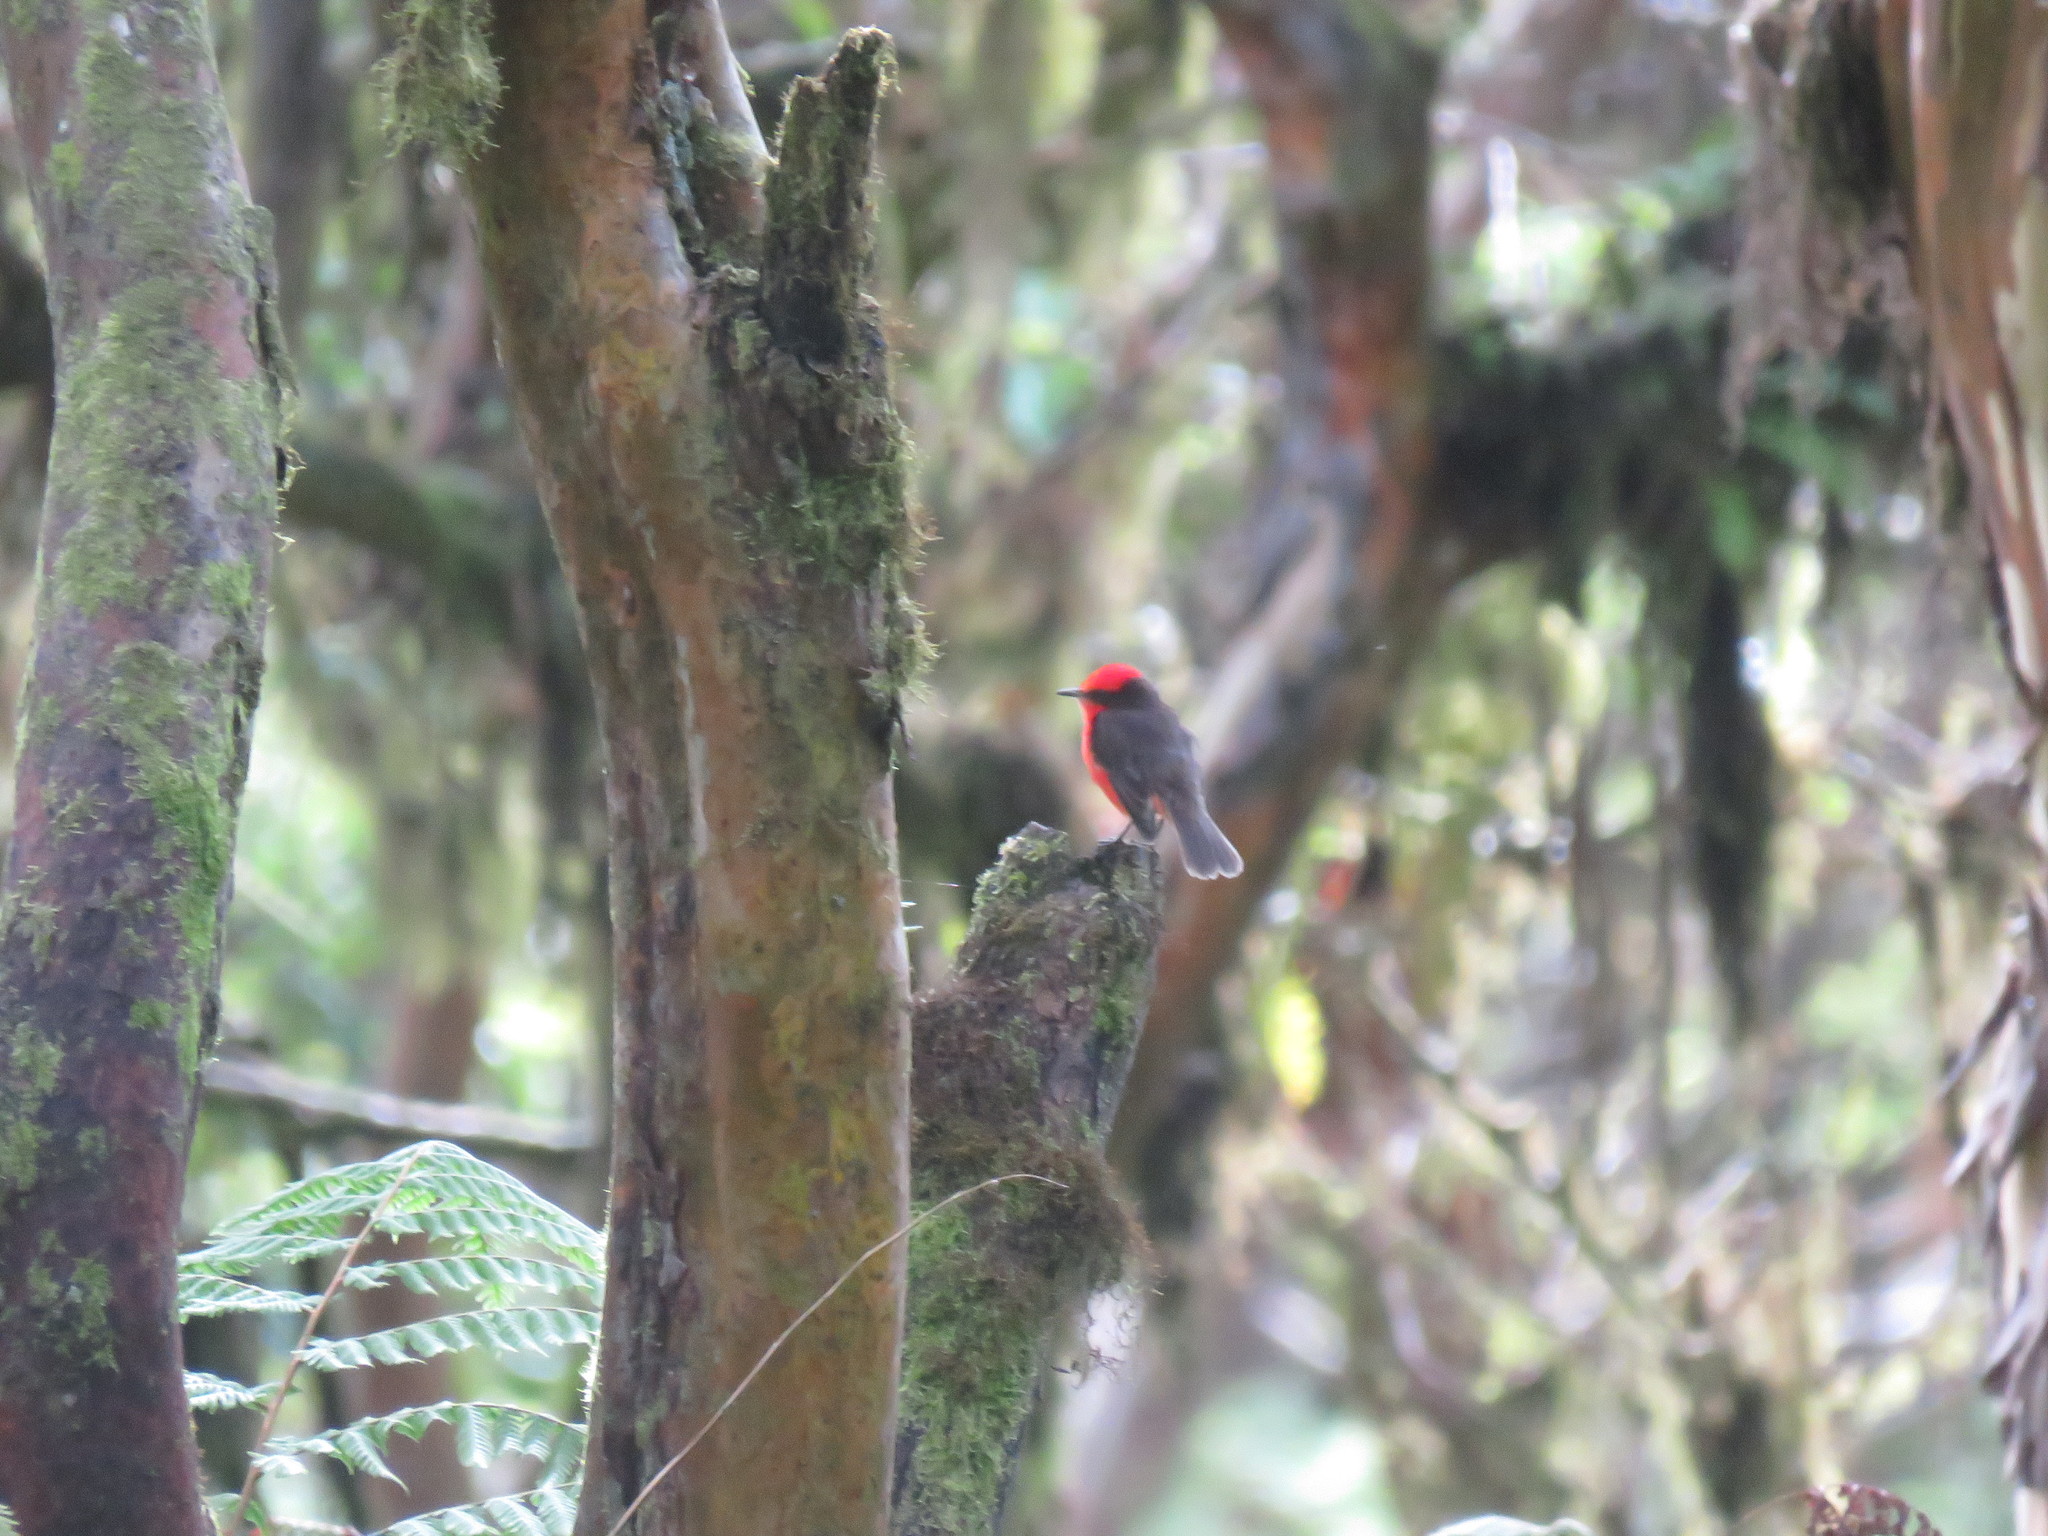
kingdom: Animalia
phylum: Chordata
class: Aves
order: Passeriformes
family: Tyrannidae
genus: Pyrocephalus
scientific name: Pyrocephalus rubinus
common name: Vermilion flycatcher
